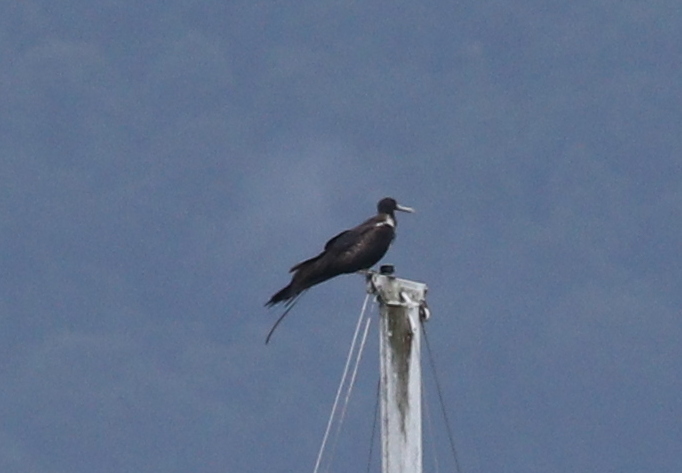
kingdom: Animalia
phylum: Chordata
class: Aves
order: Suliformes
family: Fregatidae
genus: Fregata
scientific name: Fregata magnificens
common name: Magnificent frigatebird
